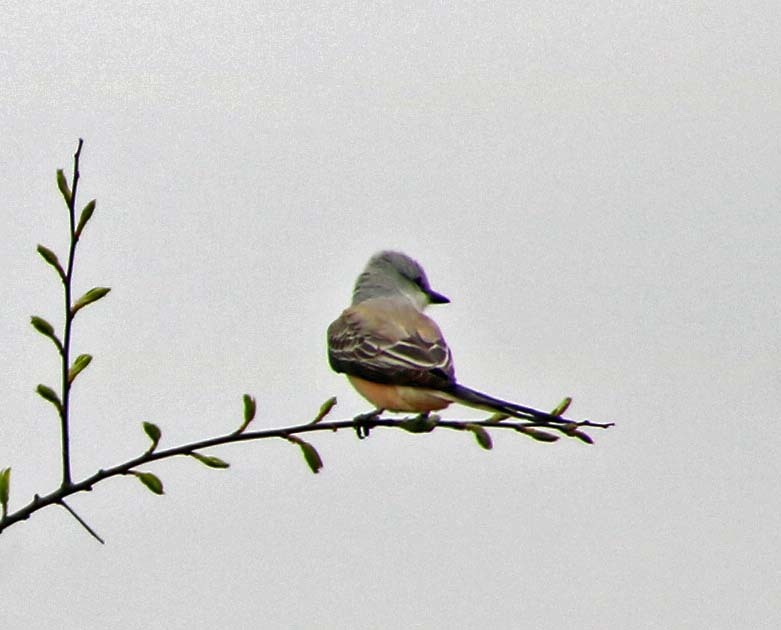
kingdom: Animalia
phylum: Chordata
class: Aves
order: Passeriformes
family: Tyrannidae
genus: Tyrannus
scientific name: Tyrannus forficatus
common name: Scissor-tailed flycatcher
